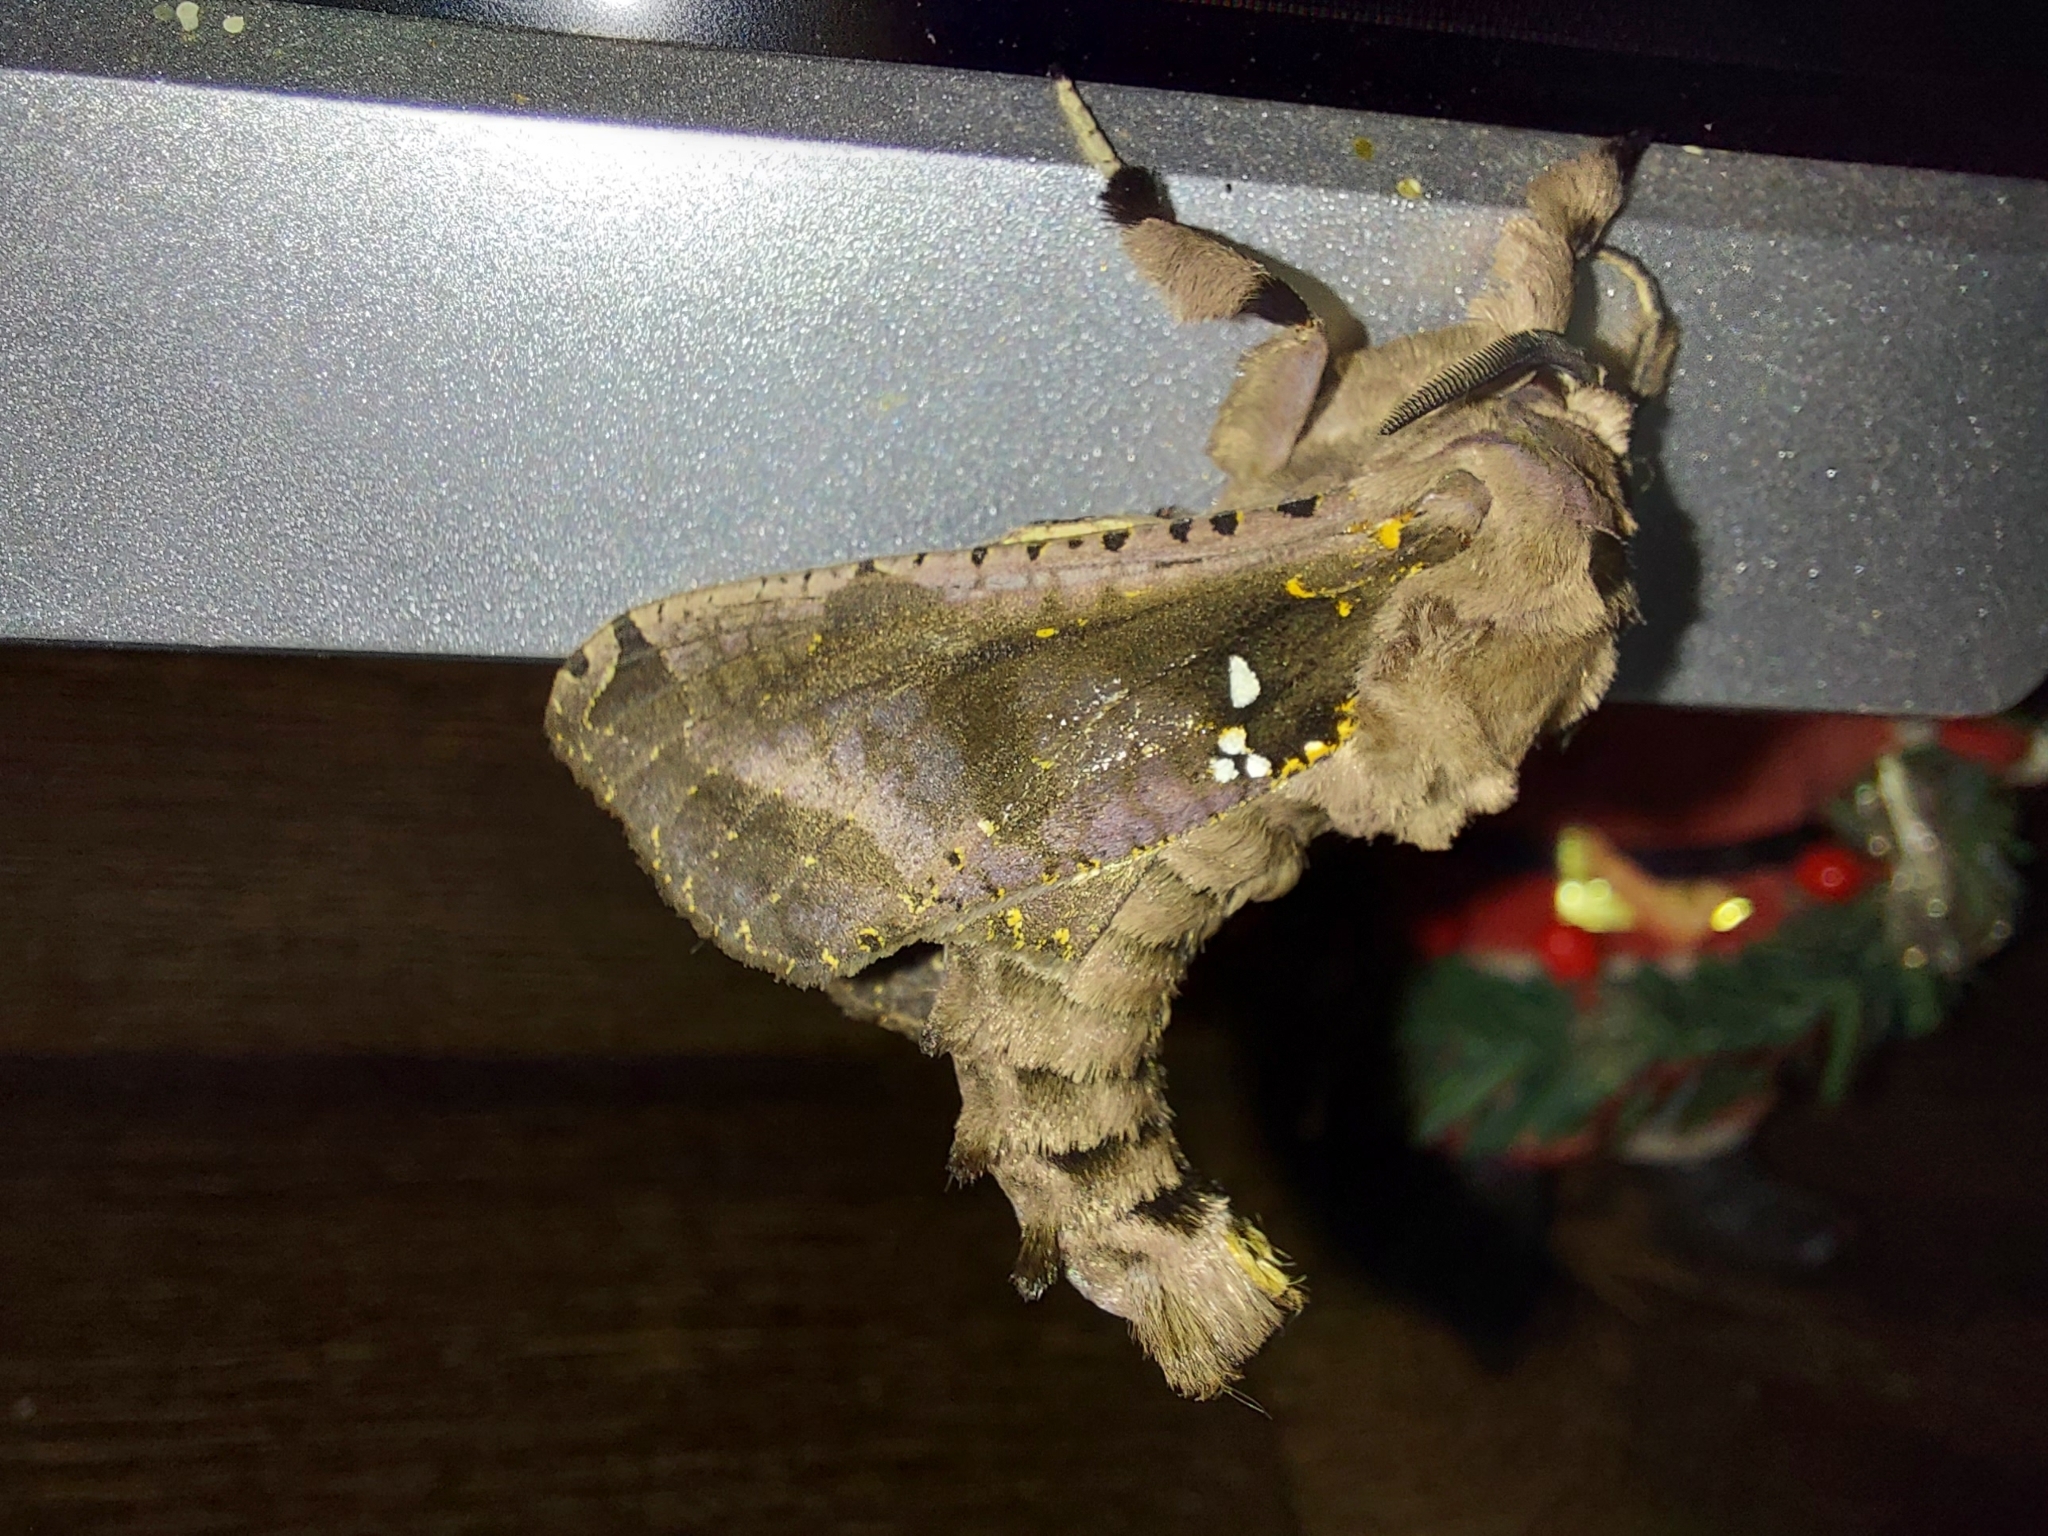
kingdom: Animalia
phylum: Arthropoda
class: Insecta
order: Lepidoptera
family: Cossidae
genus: Langsdorfia
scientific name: Langsdorfia franckii
